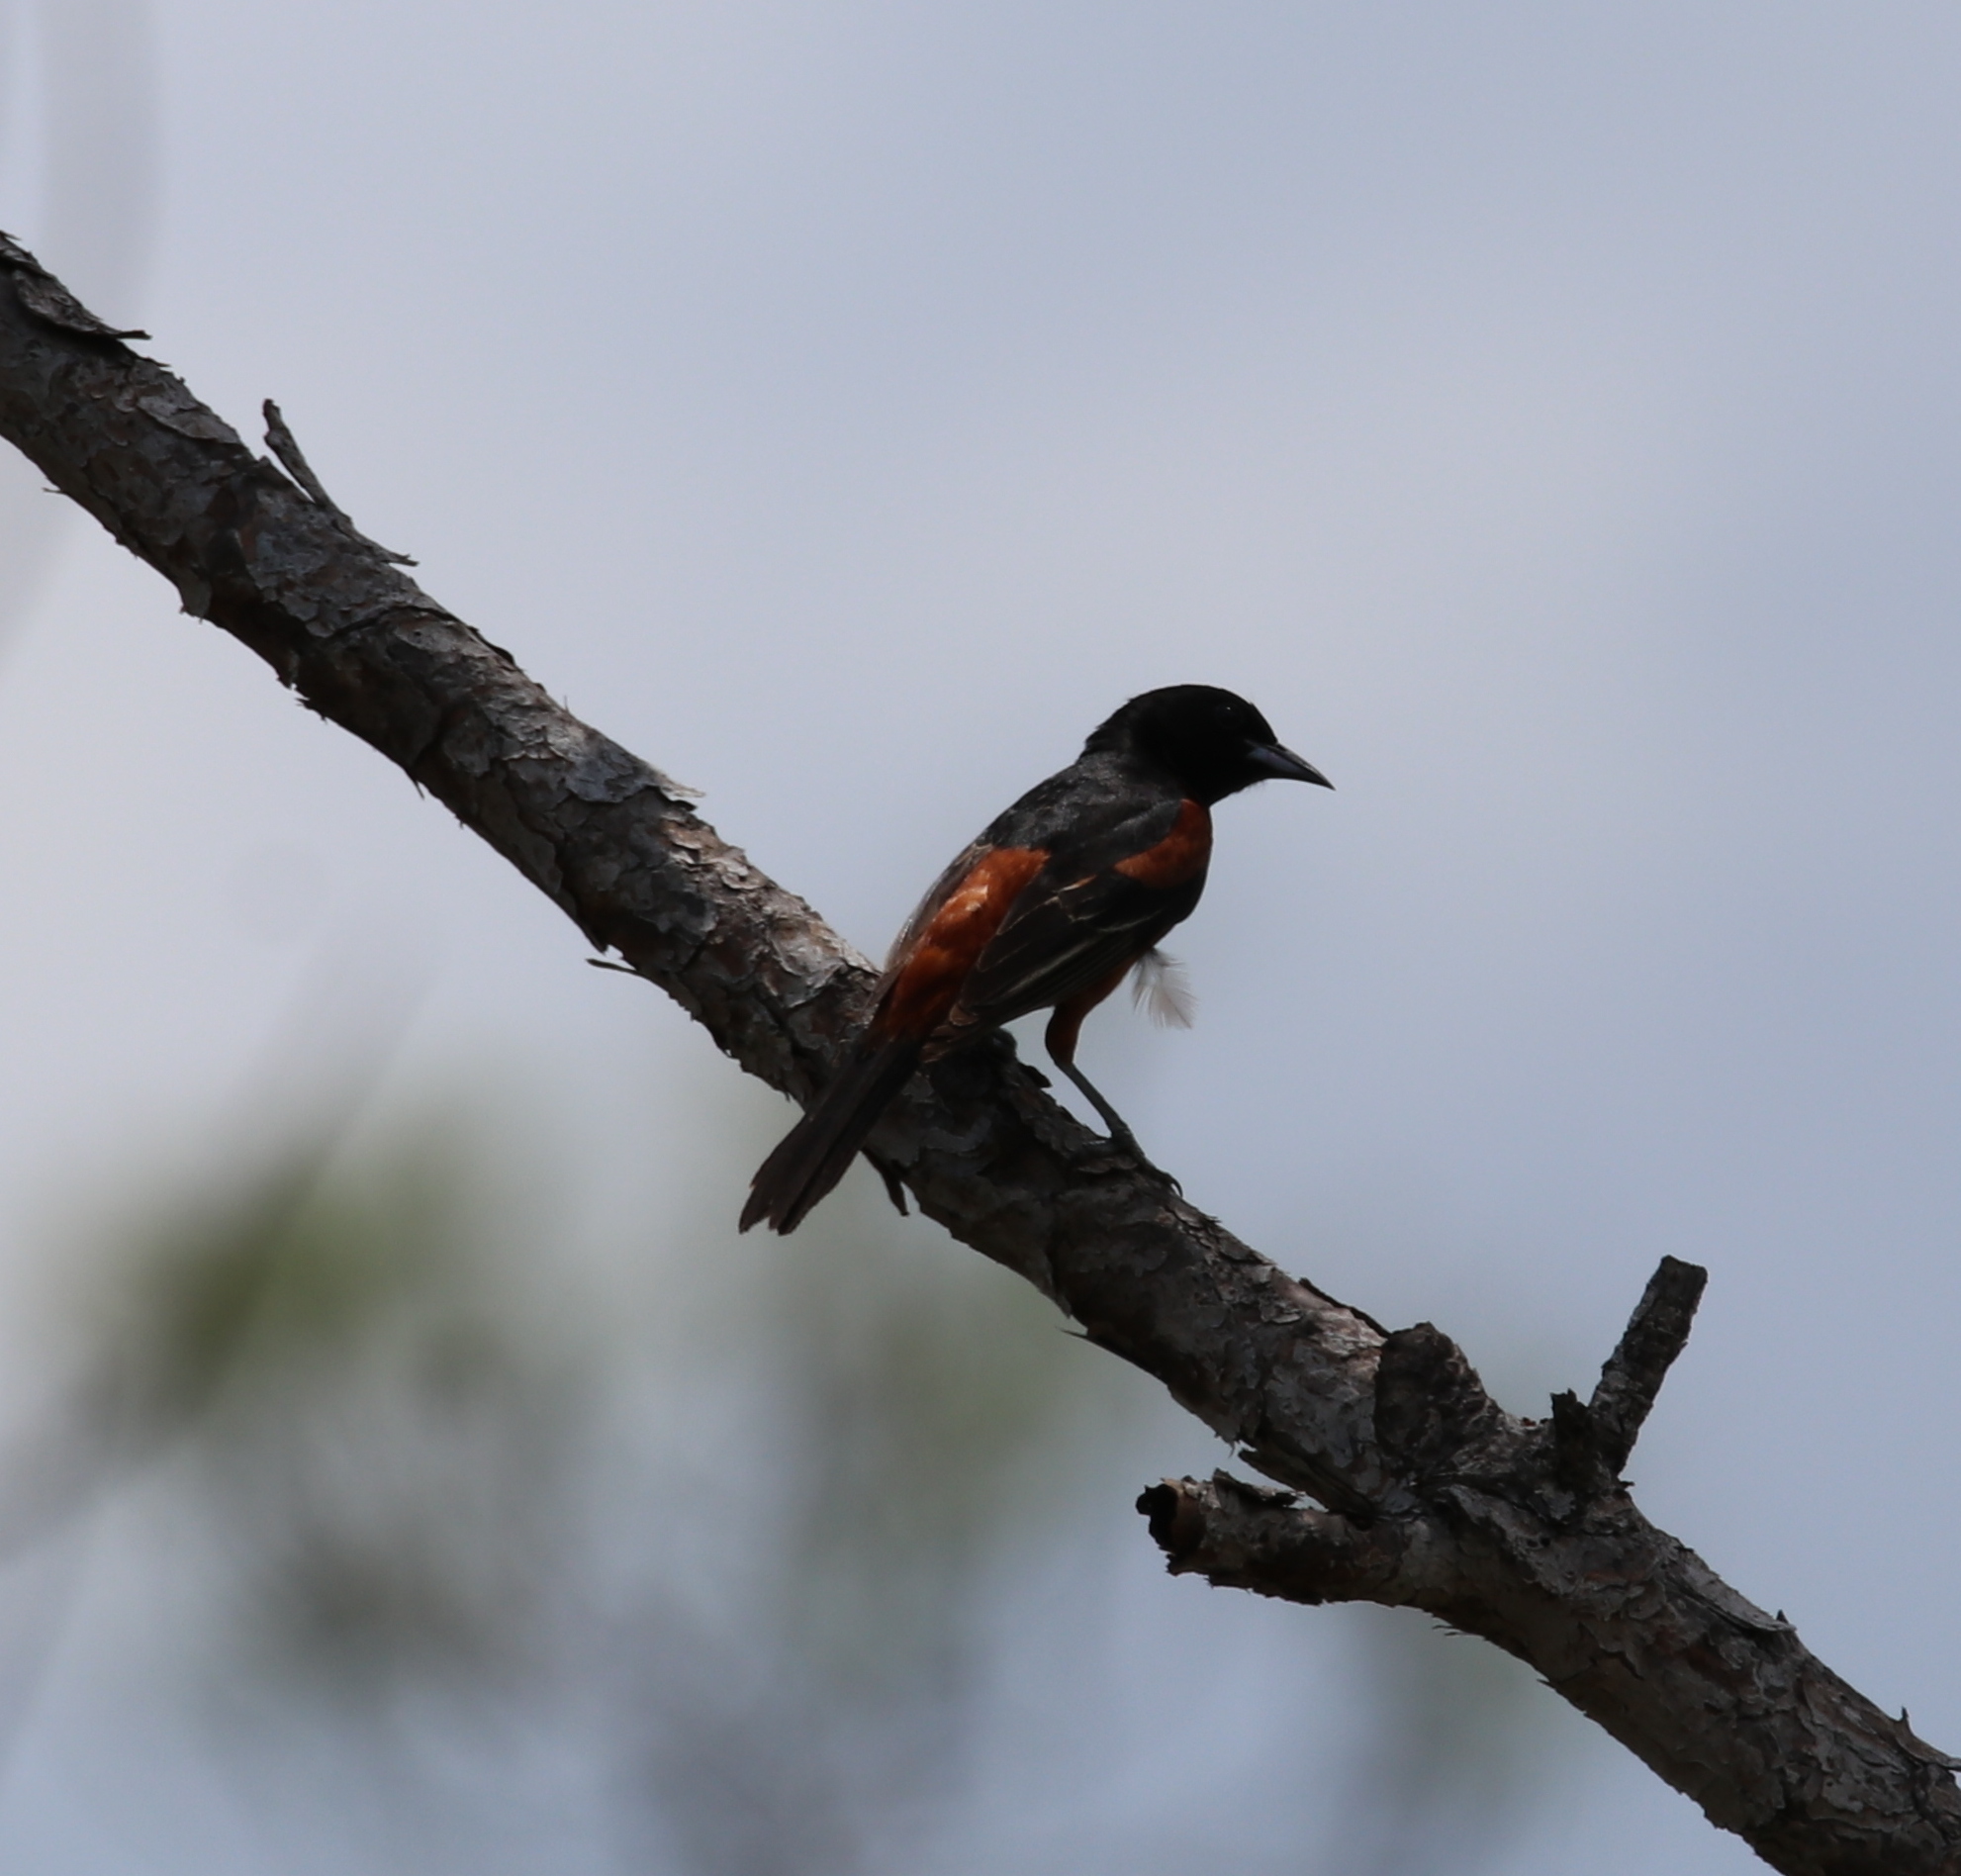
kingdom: Animalia
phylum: Chordata
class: Aves
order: Passeriformes
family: Icteridae
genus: Icterus
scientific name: Icterus spurius
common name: Orchard oriole
